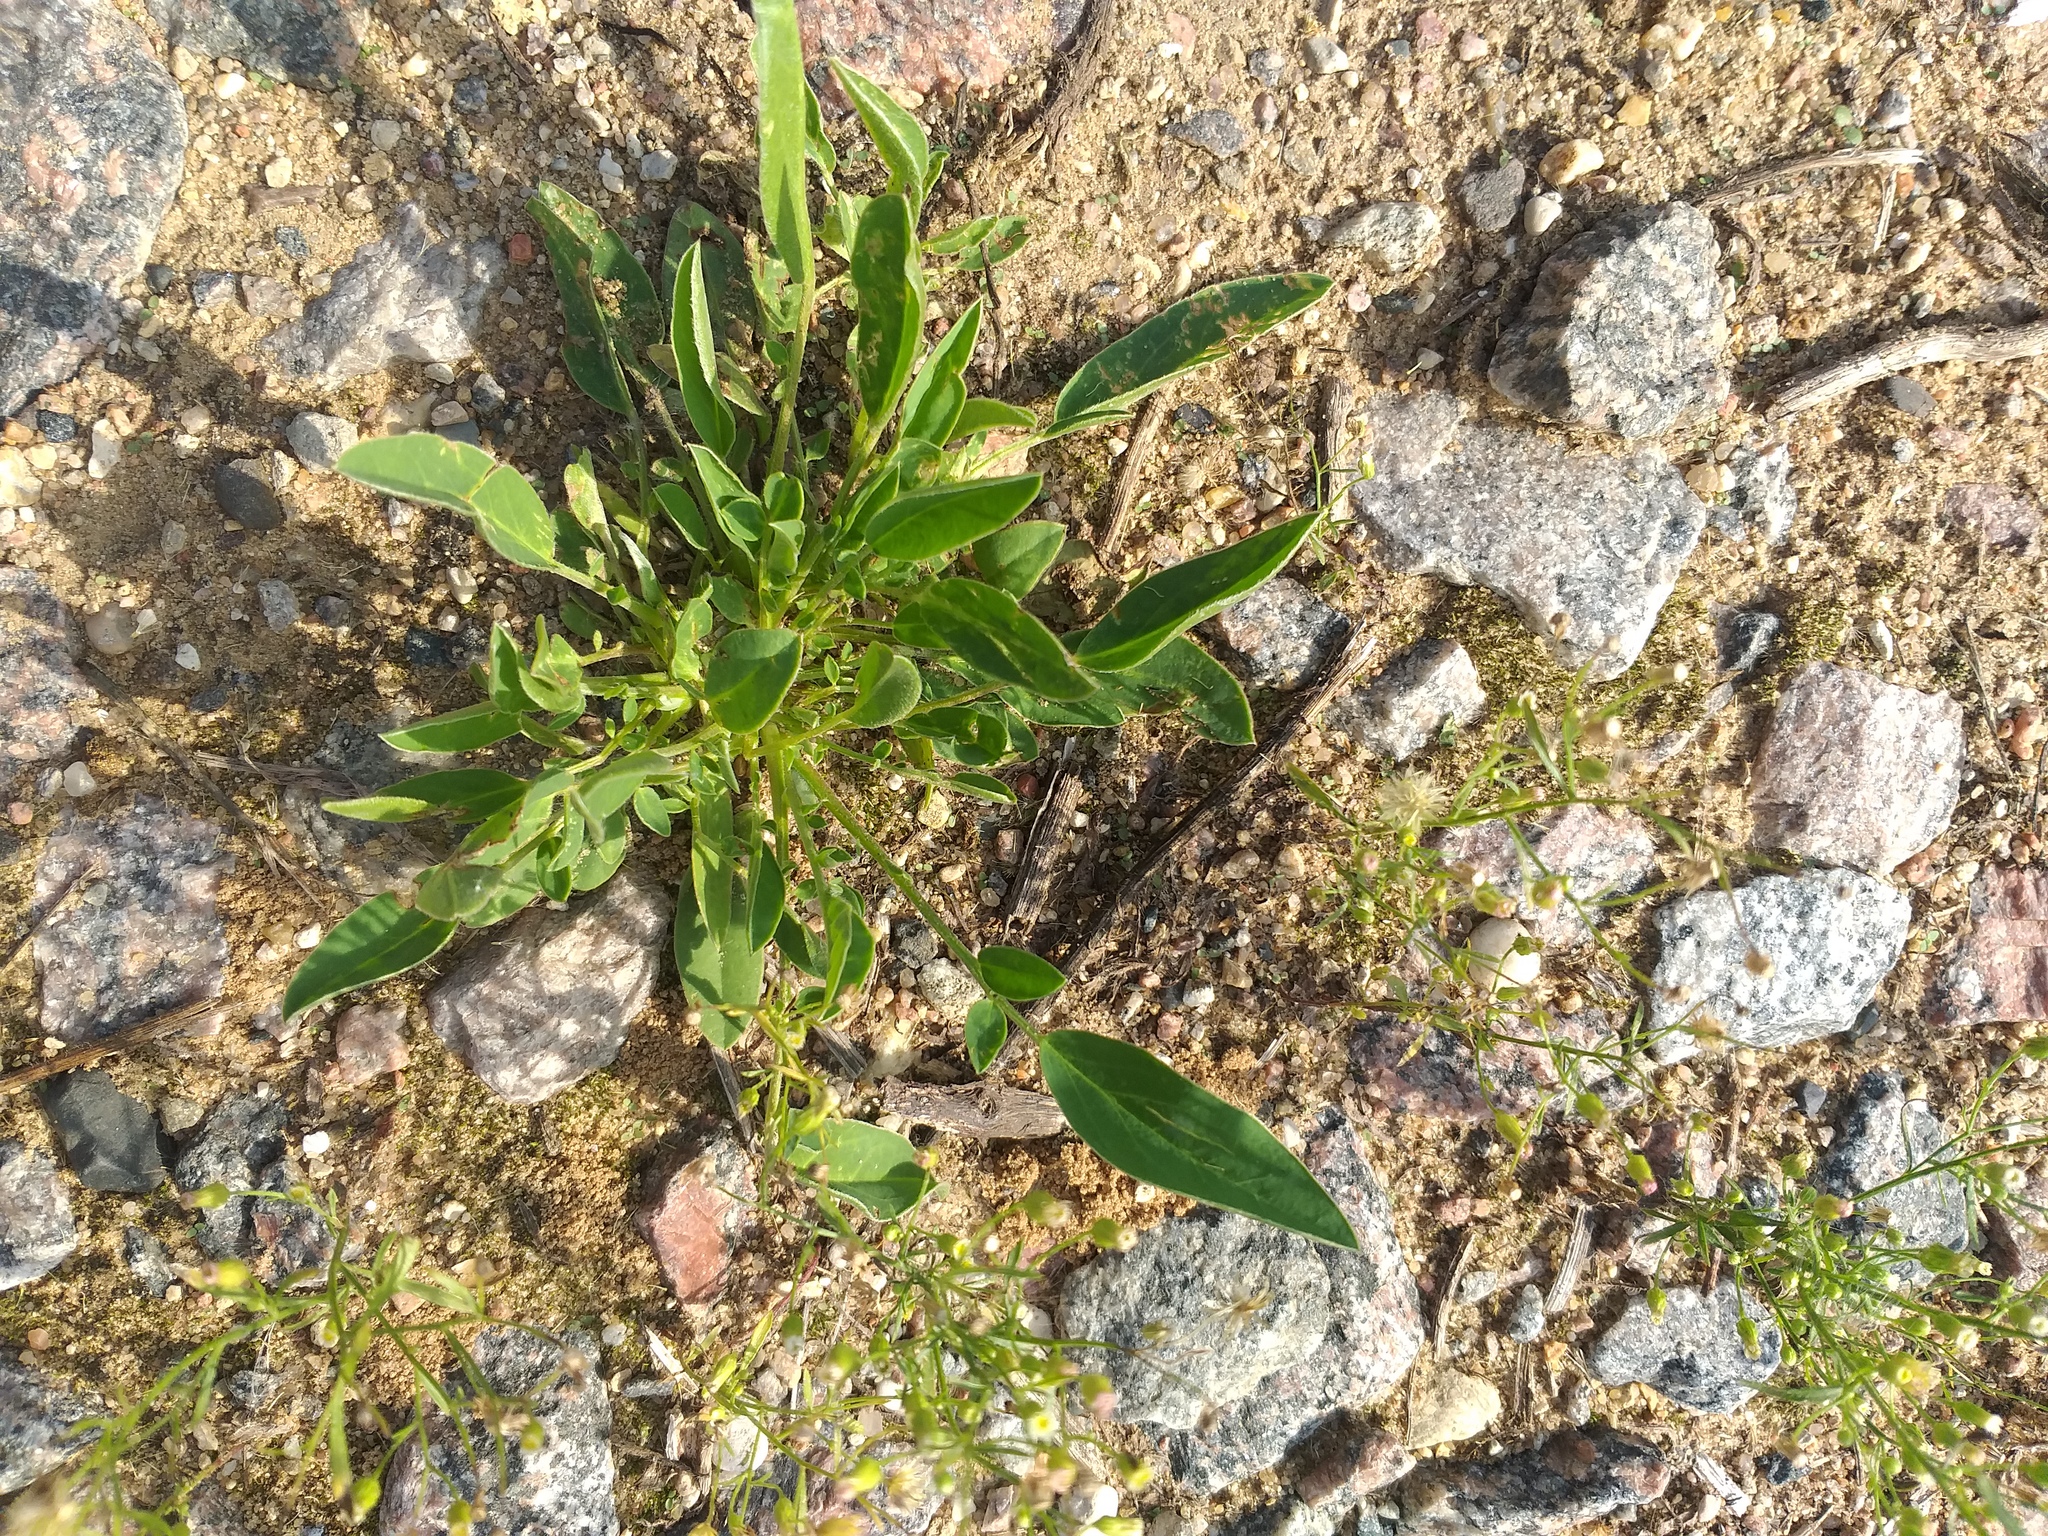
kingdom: Plantae
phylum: Tracheophyta
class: Magnoliopsida
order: Fabales
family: Fabaceae
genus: Anthyllis
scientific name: Anthyllis vulneraria
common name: Kidney vetch
